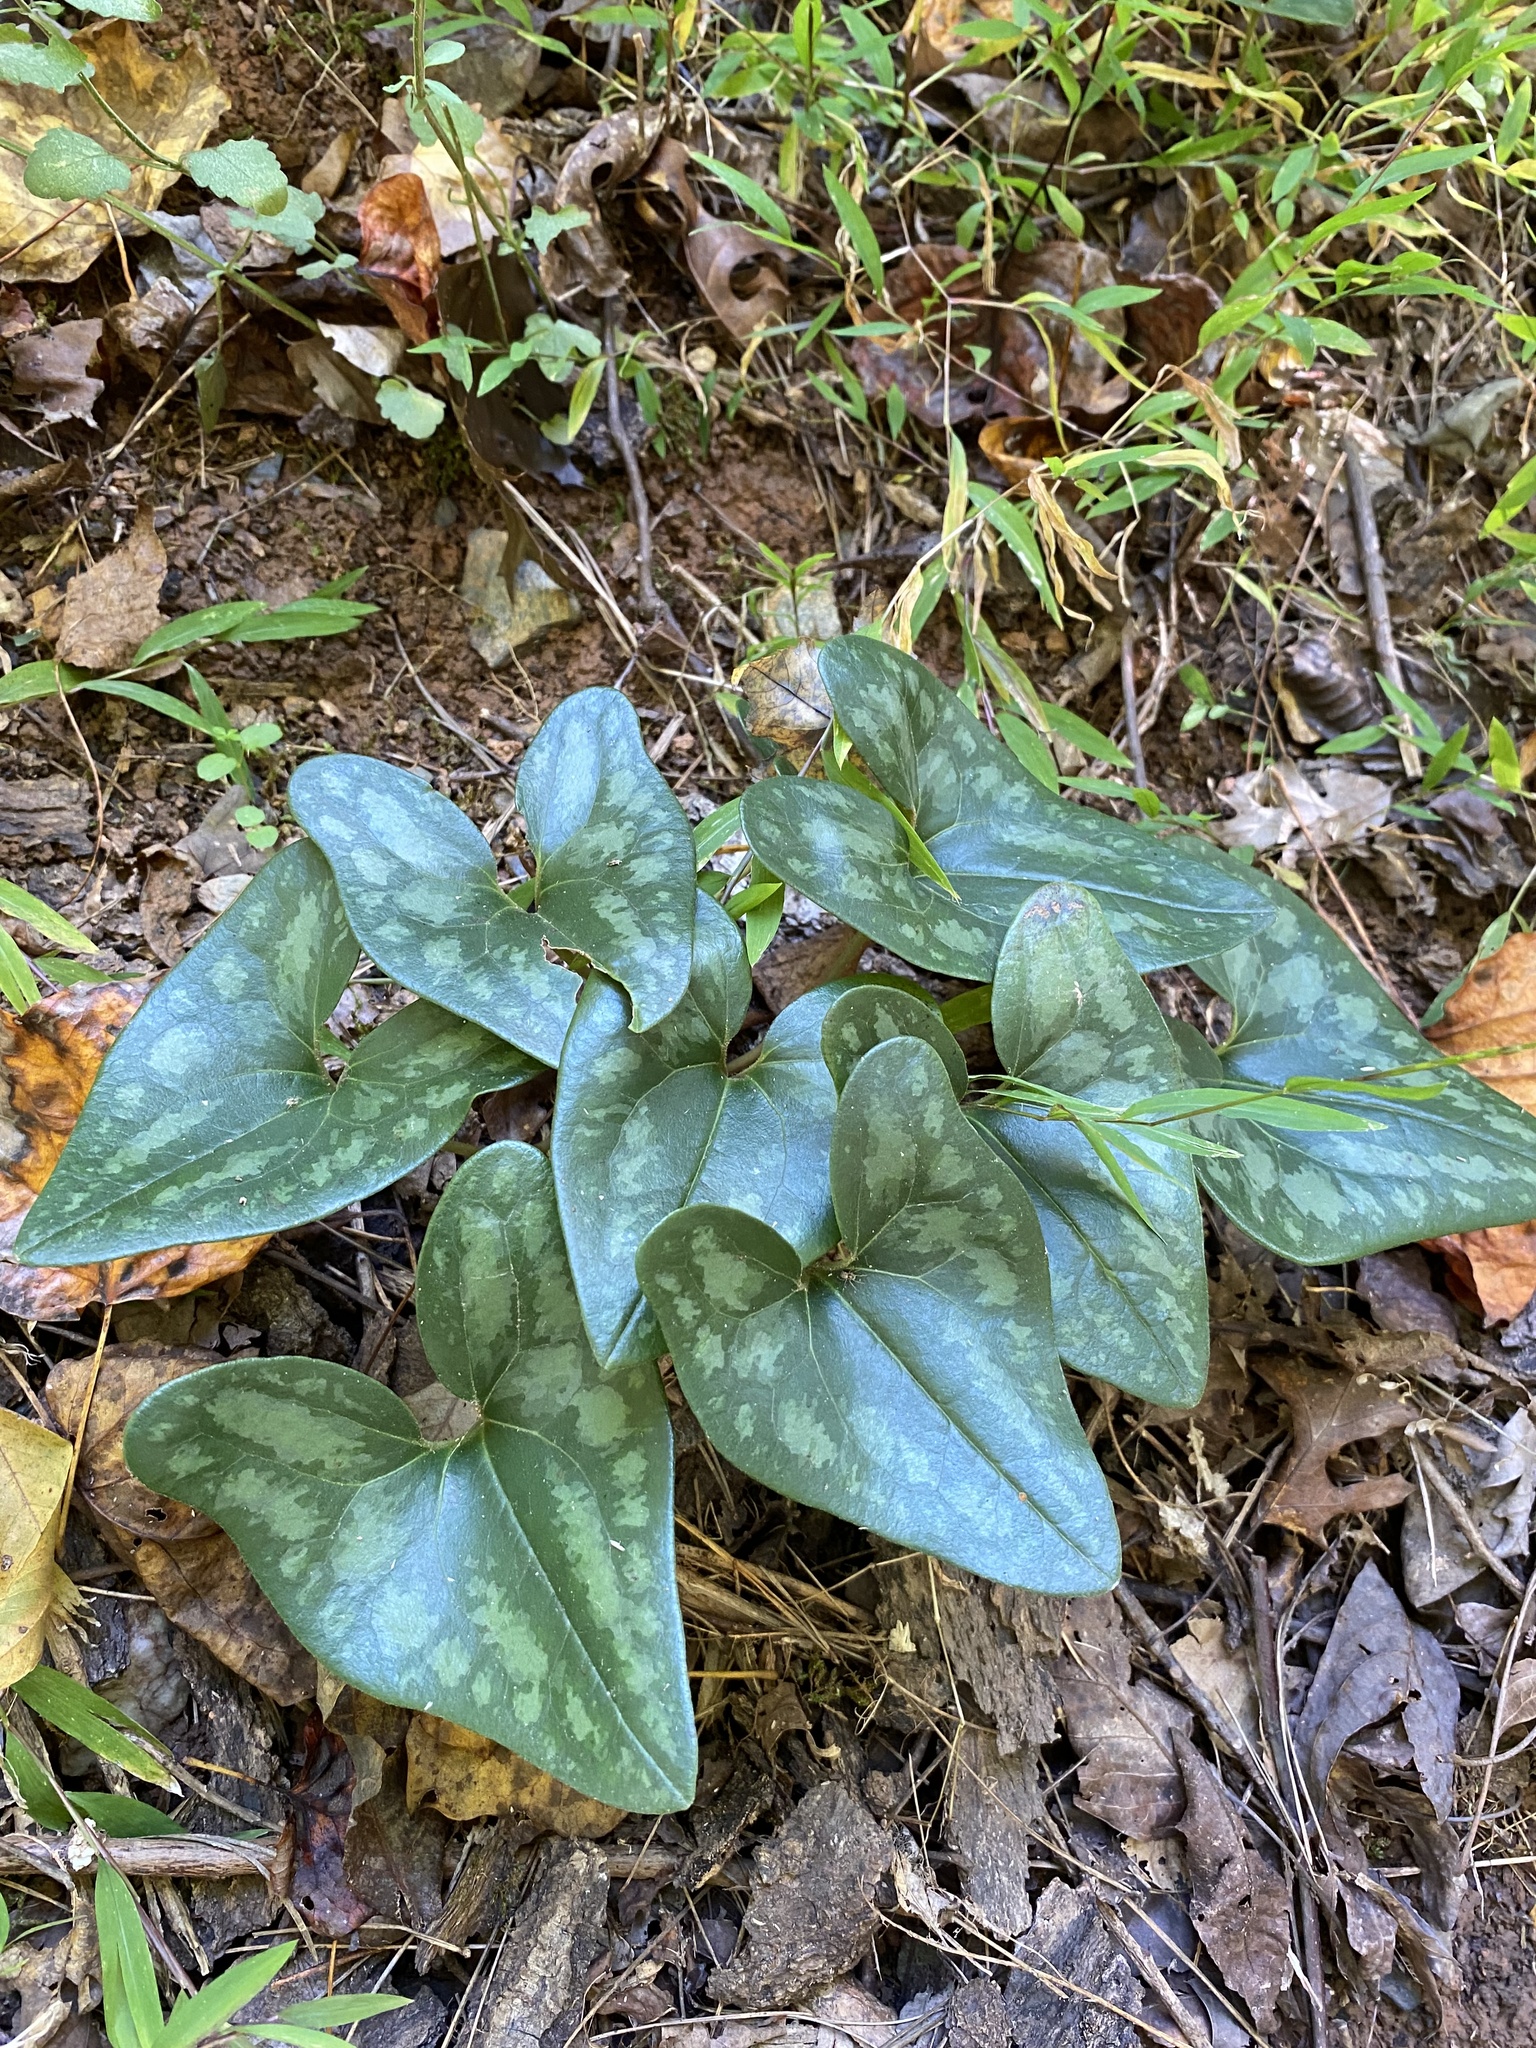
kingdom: Plantae
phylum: Tracheophyta
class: Magnoliopsida
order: Piperales
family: Aristolochiaceae
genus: Hexastylis
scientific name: Hexastylis arifolia
